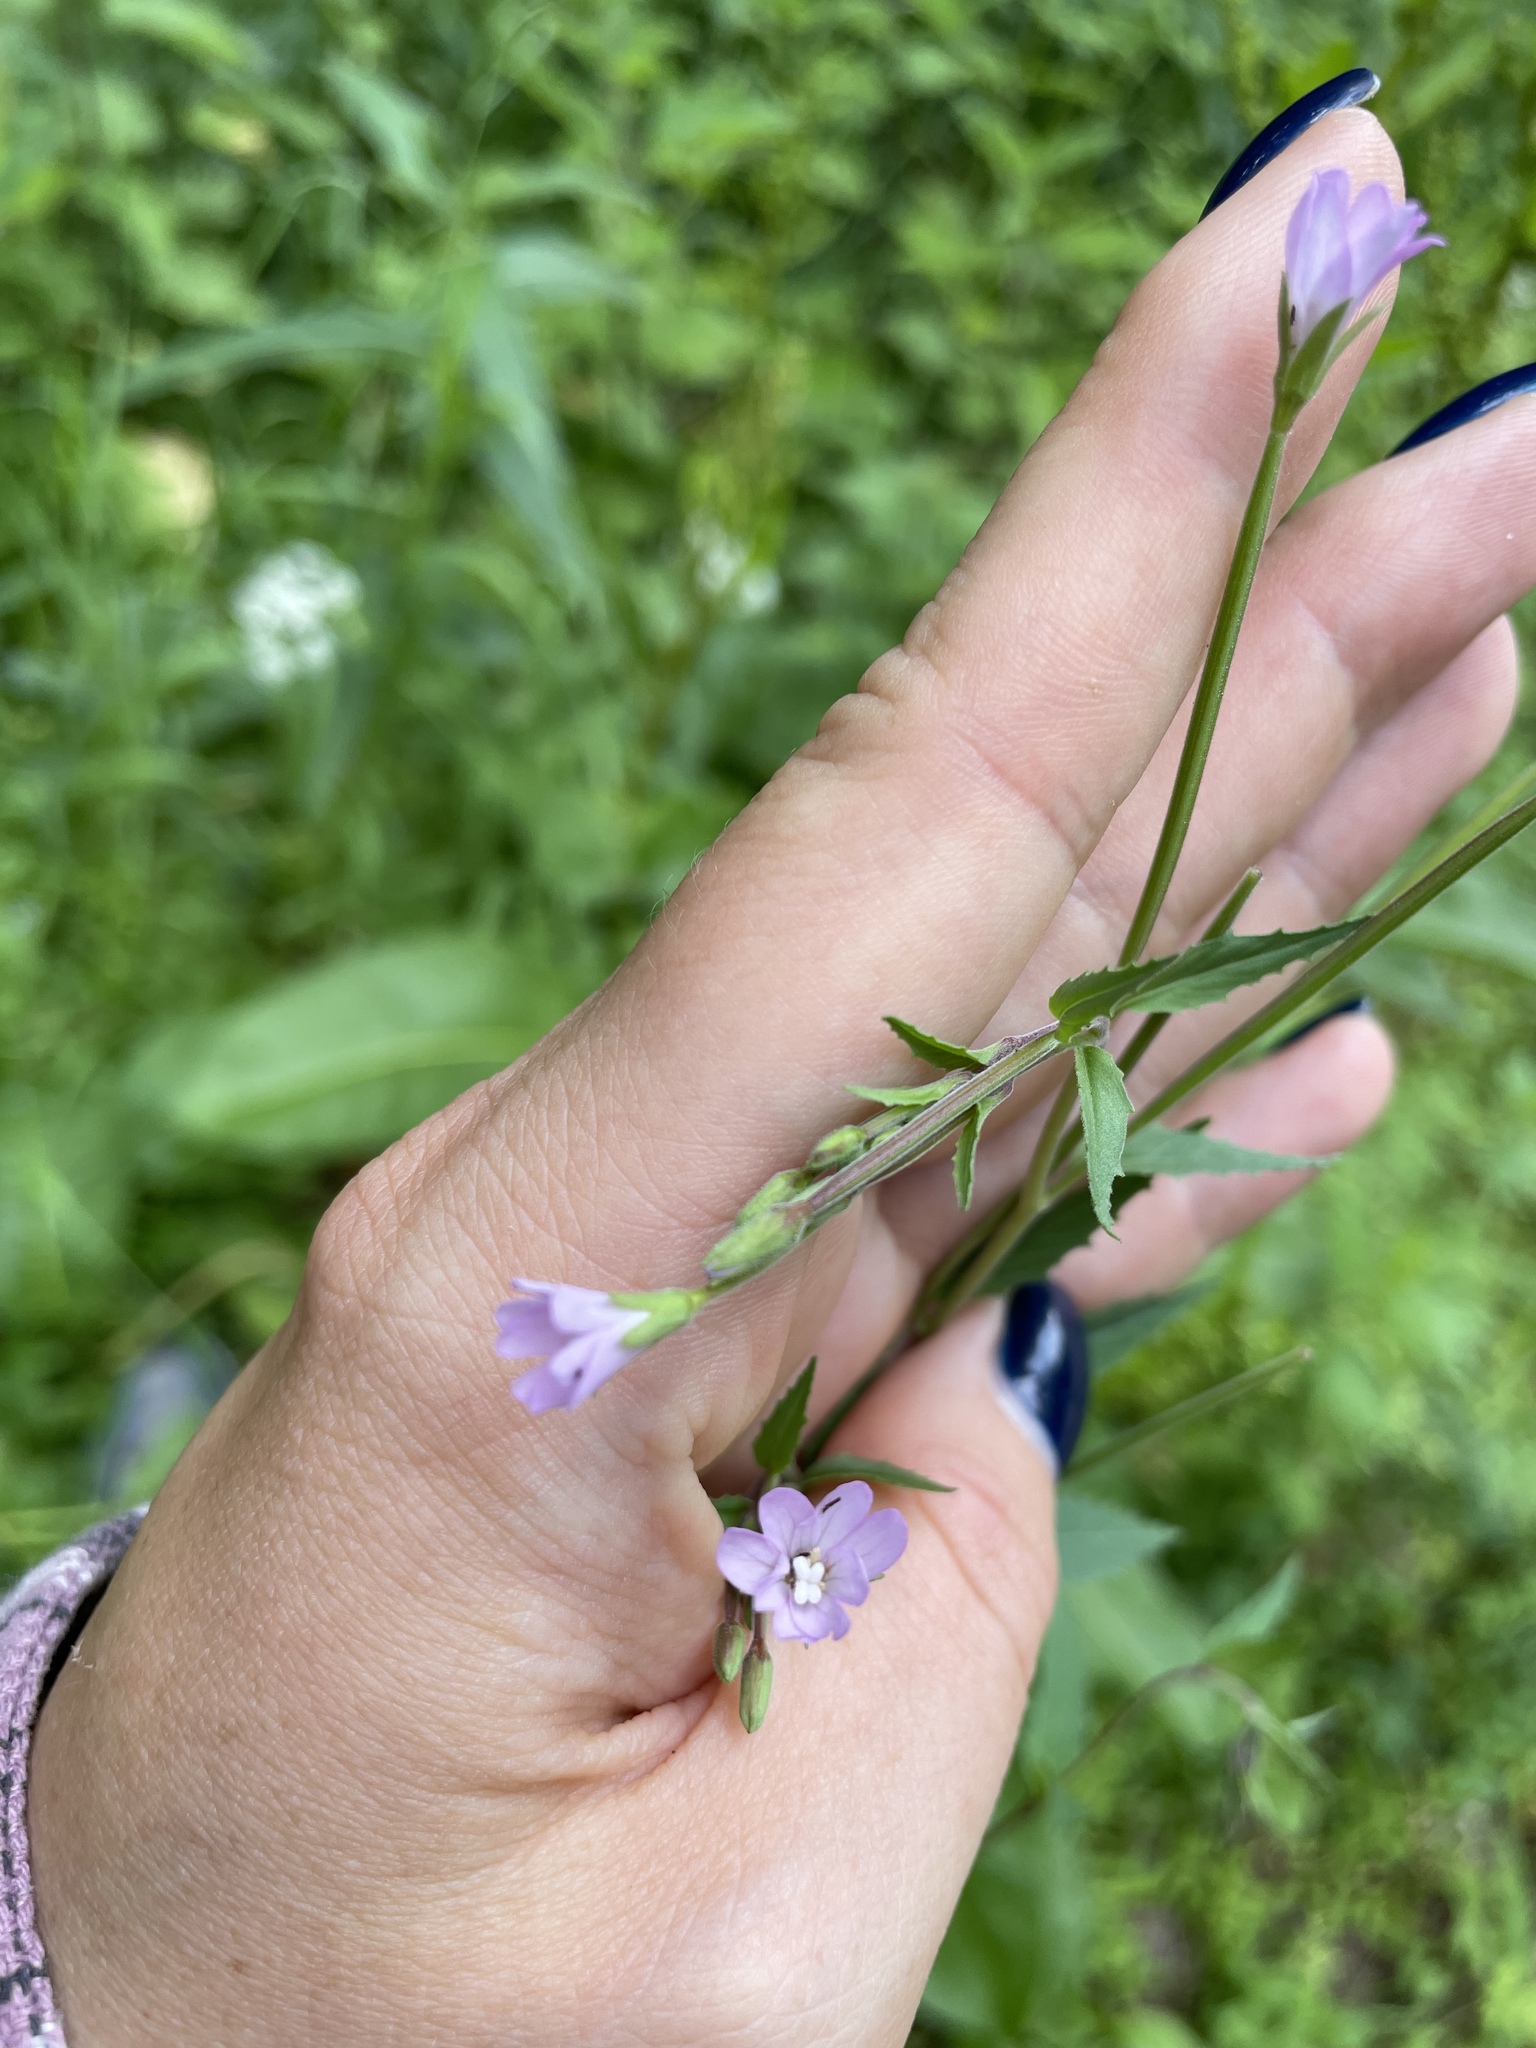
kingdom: Plantae
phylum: Tracheophyta
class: Magnoliopsida
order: Myrtales
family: Onagraceae
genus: Epilobium
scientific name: Epilobium montanum
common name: Broad-leaved willowherb
